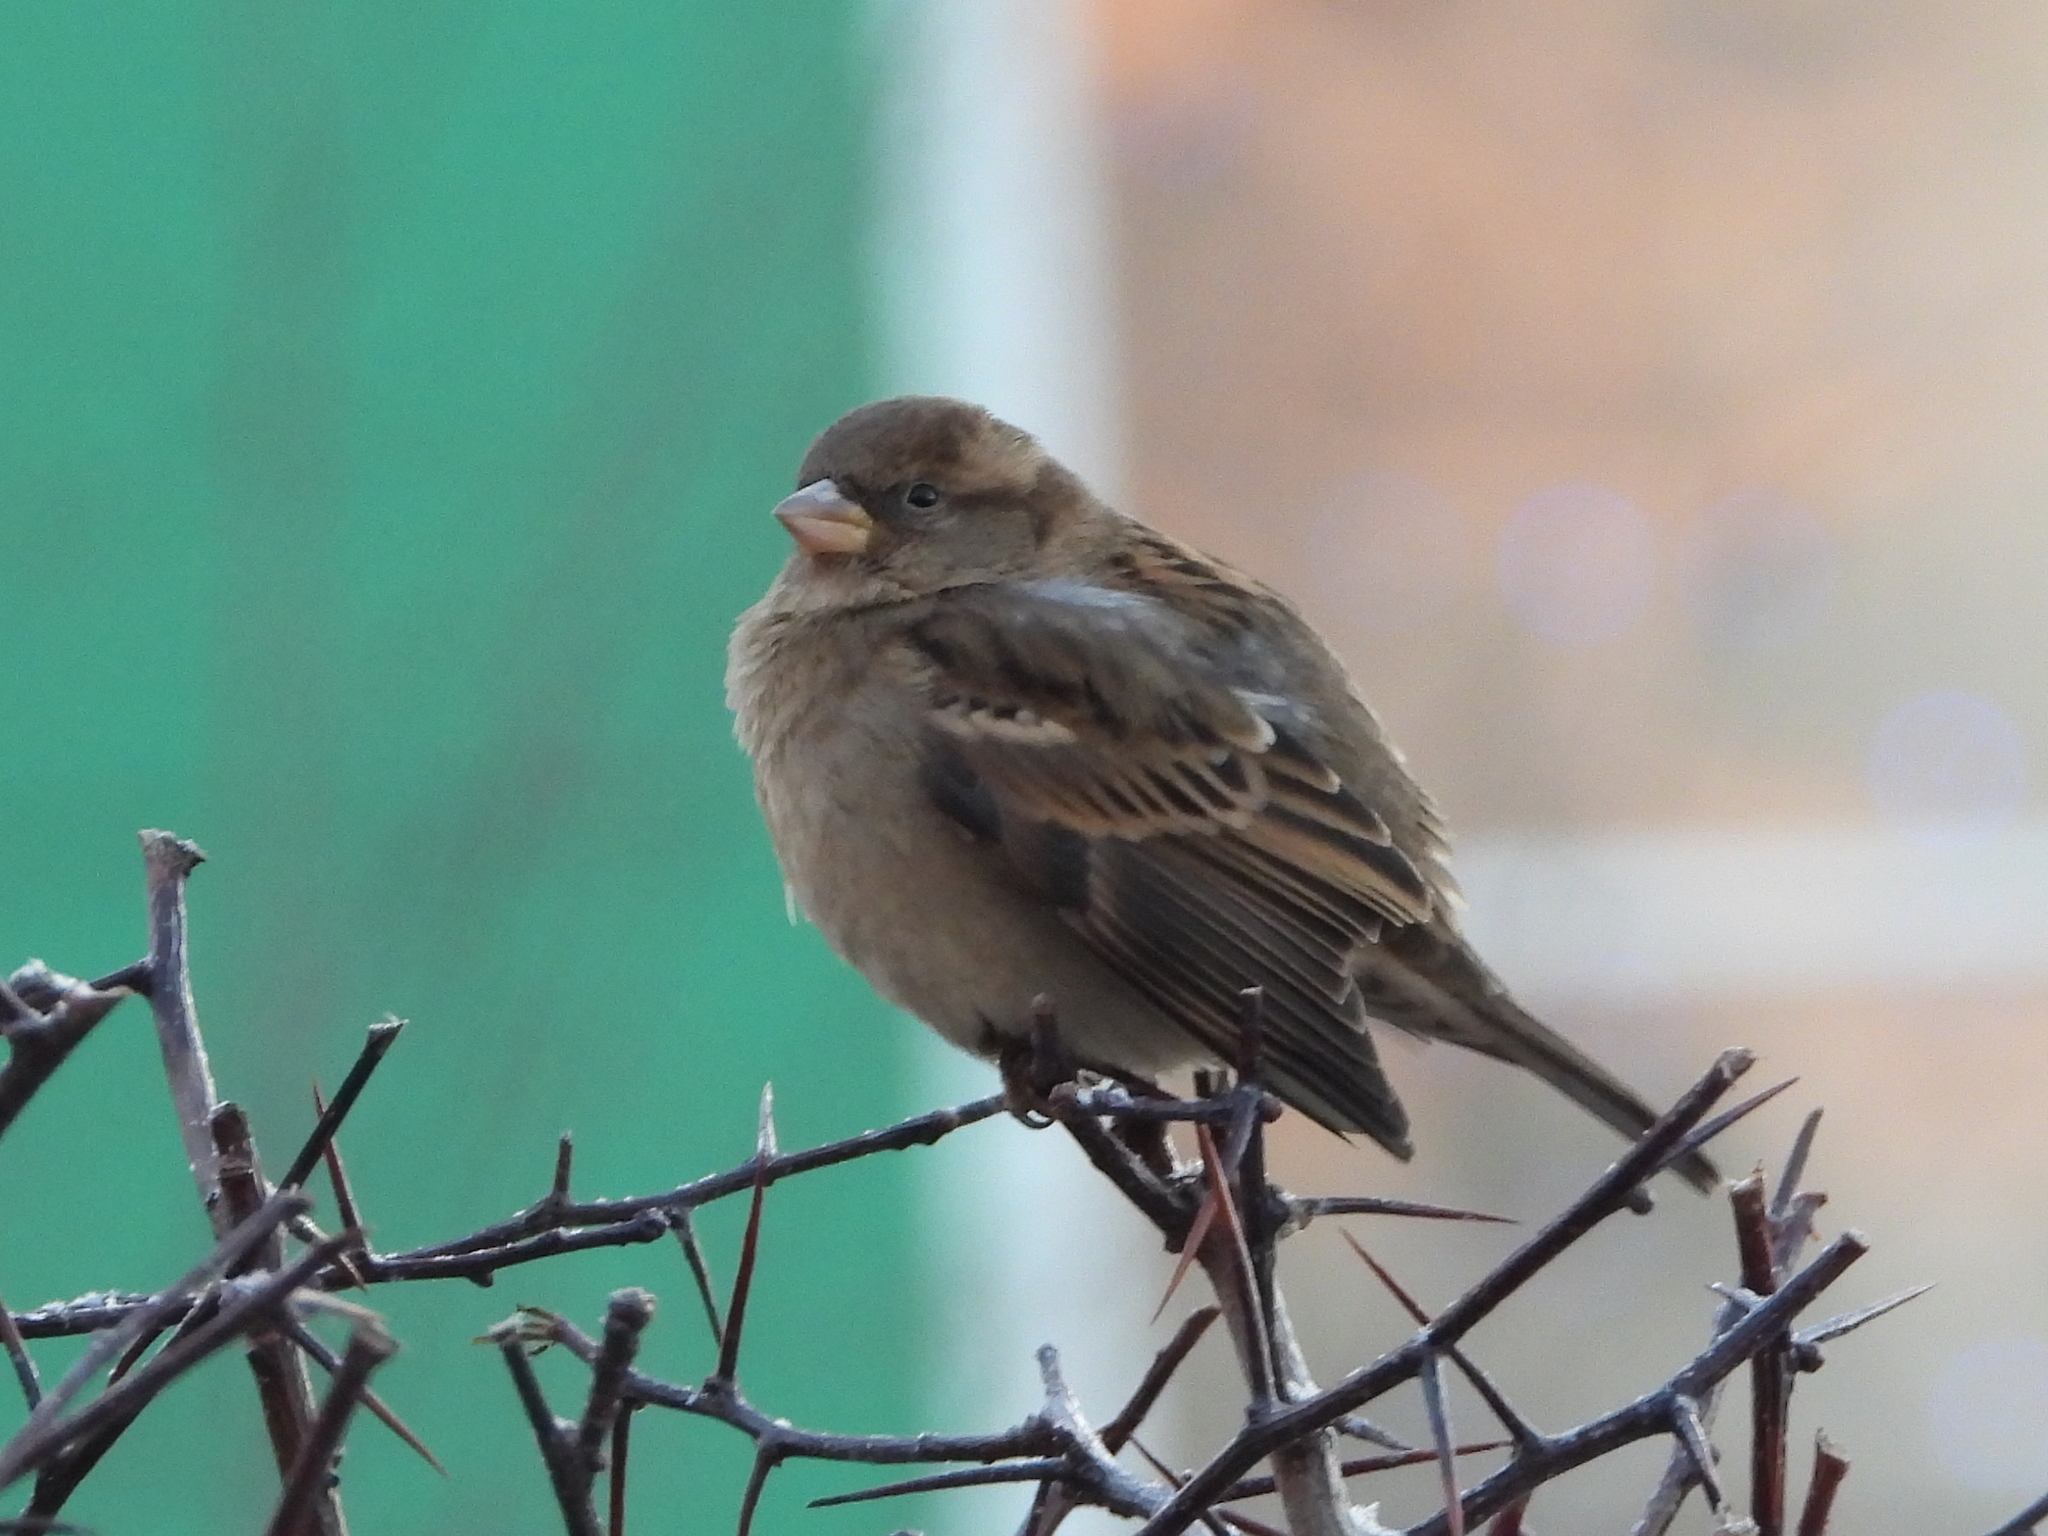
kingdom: Animalia
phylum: Chordata
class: Aves
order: Passeriformes
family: Passeridae
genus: Passer
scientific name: Passer domesticus
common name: House sparrow
